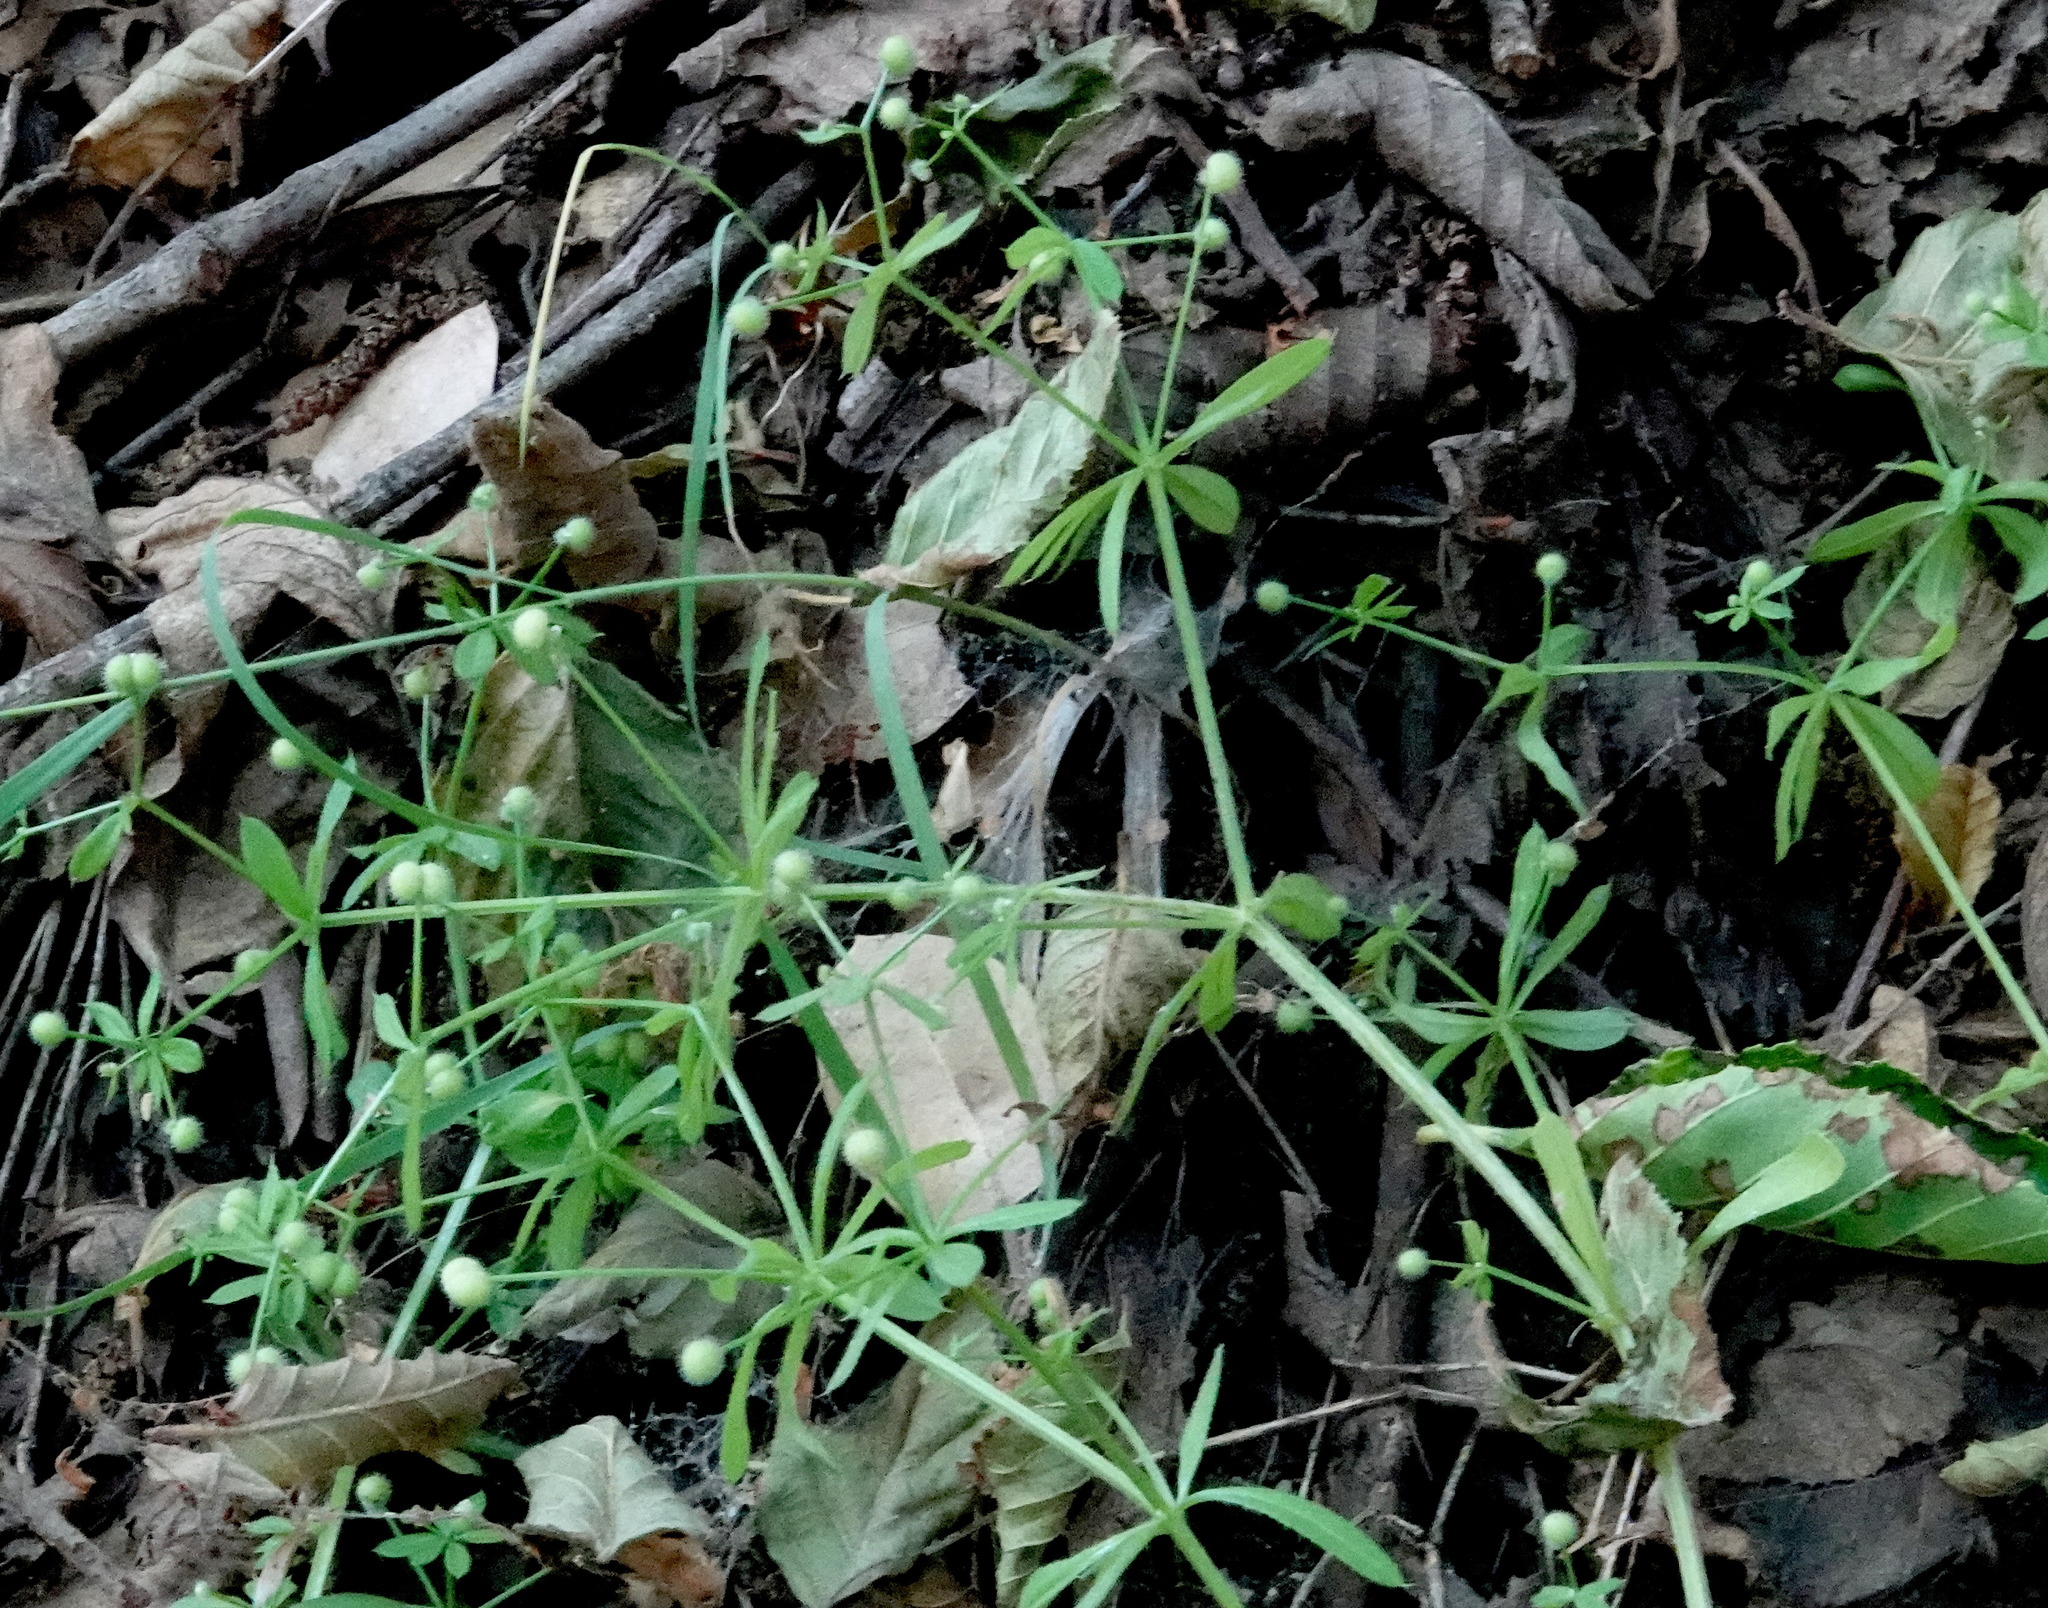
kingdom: Plantae
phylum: Tracheophyta
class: Magnoliopsida
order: Gentianales
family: Rubiaceae
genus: Galium
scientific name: Galium aparine
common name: Cleavers
